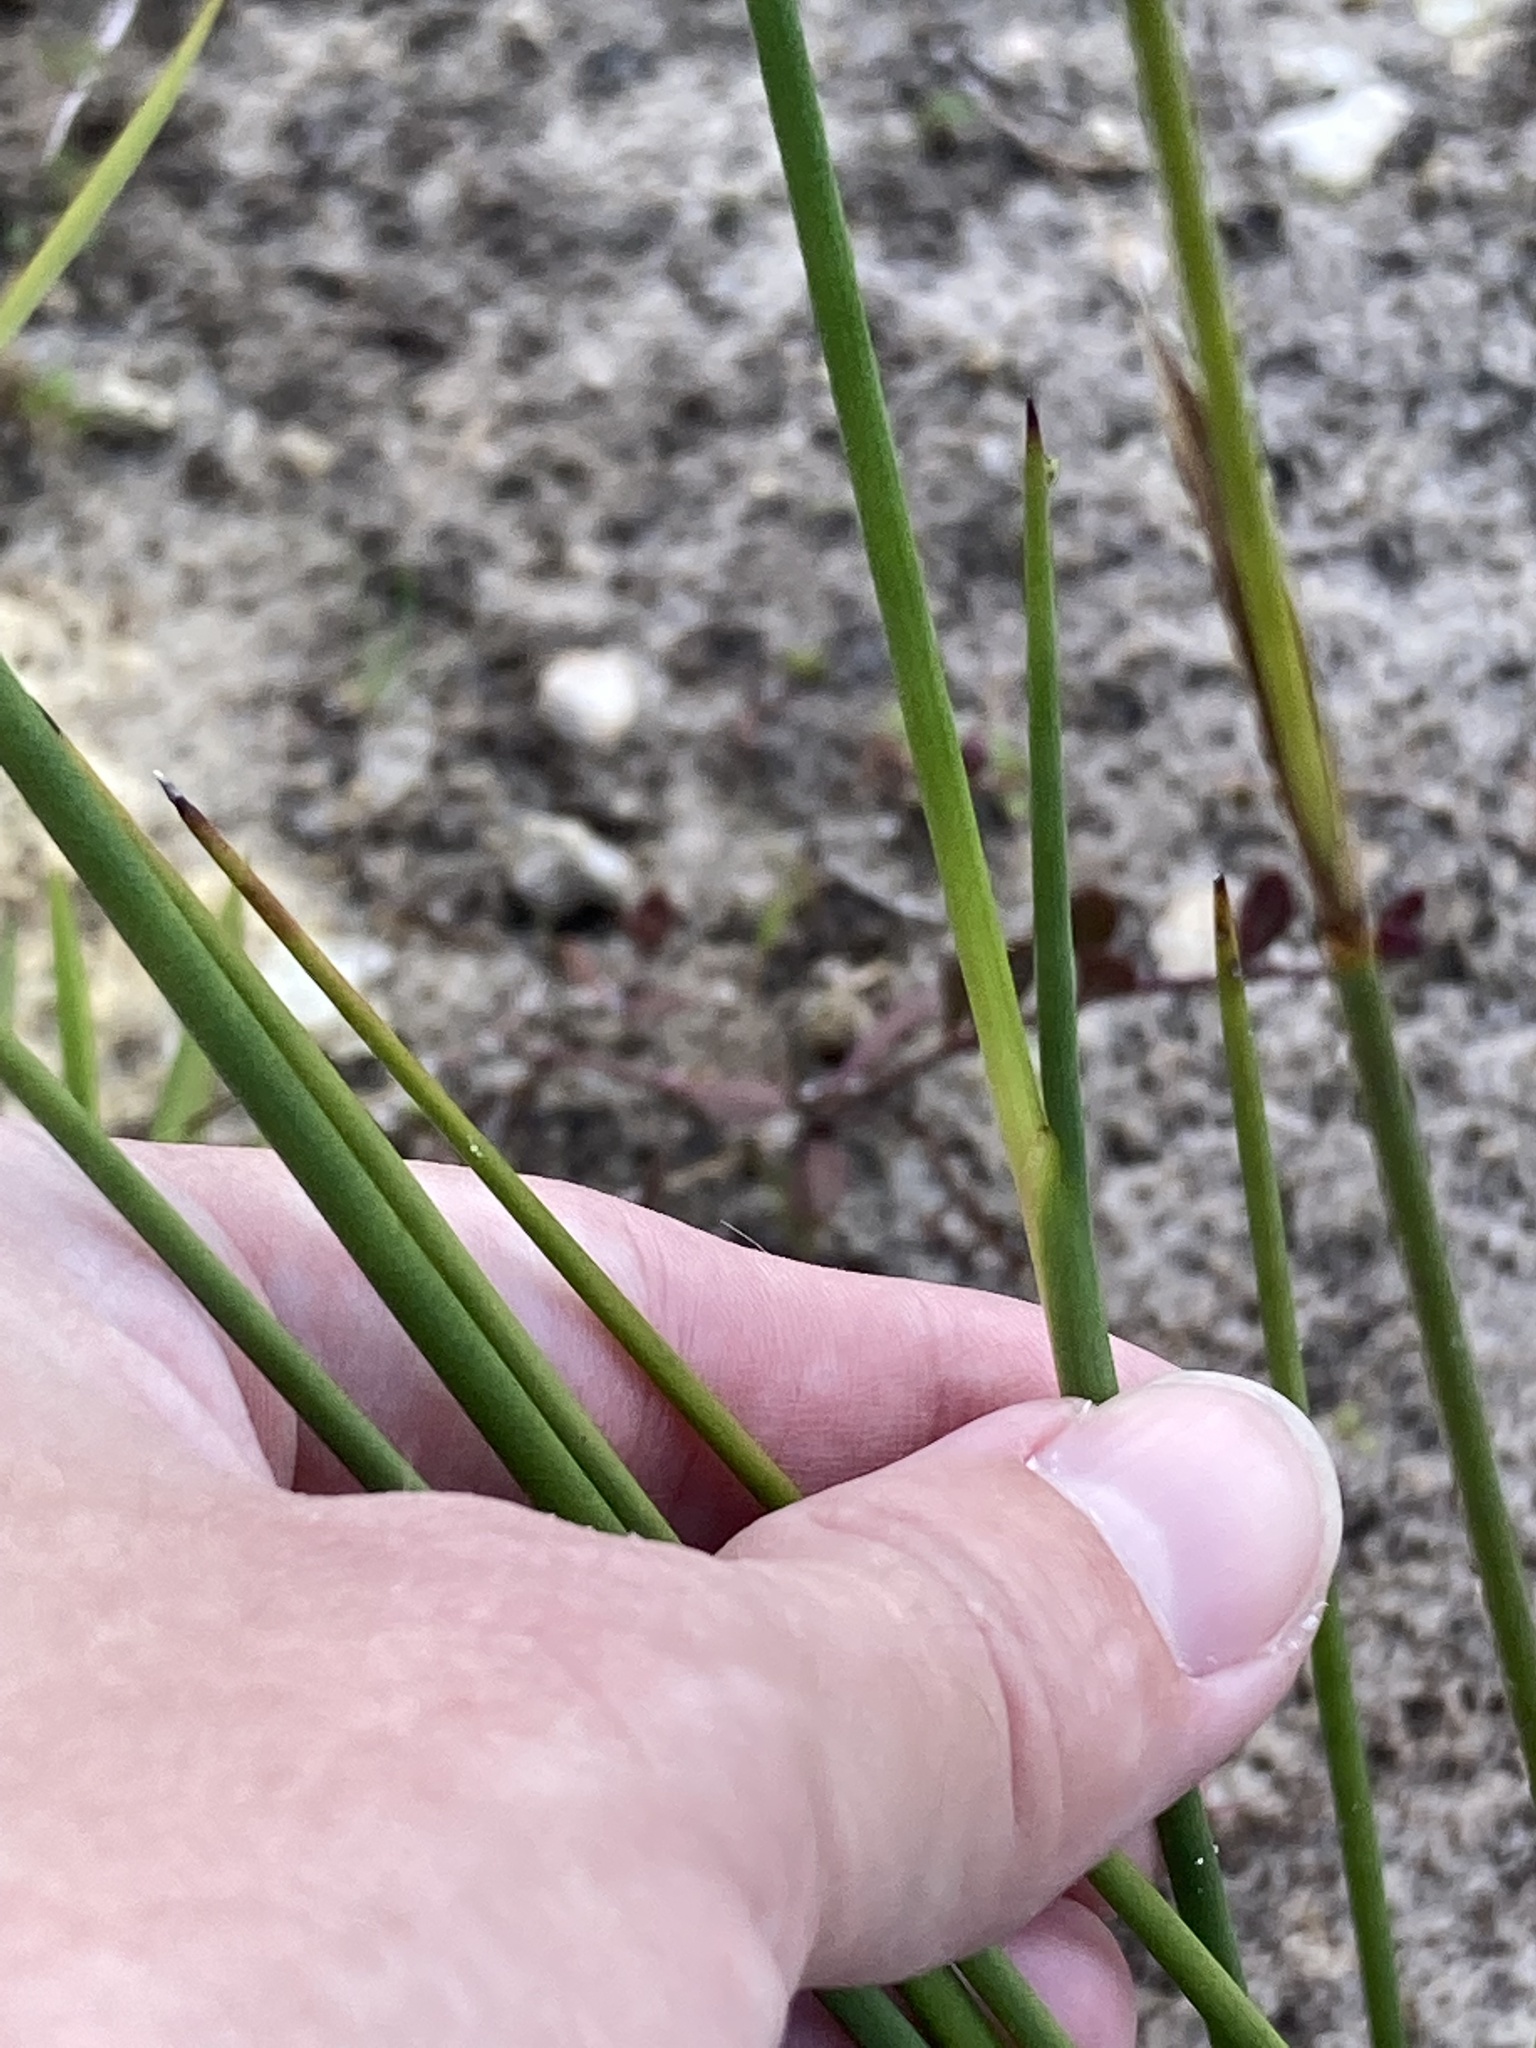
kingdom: Plantae
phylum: Tracheophyta
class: Liliopsida
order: Poales
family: Juncaceae
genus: Juncus
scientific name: Juncus megacephalus
